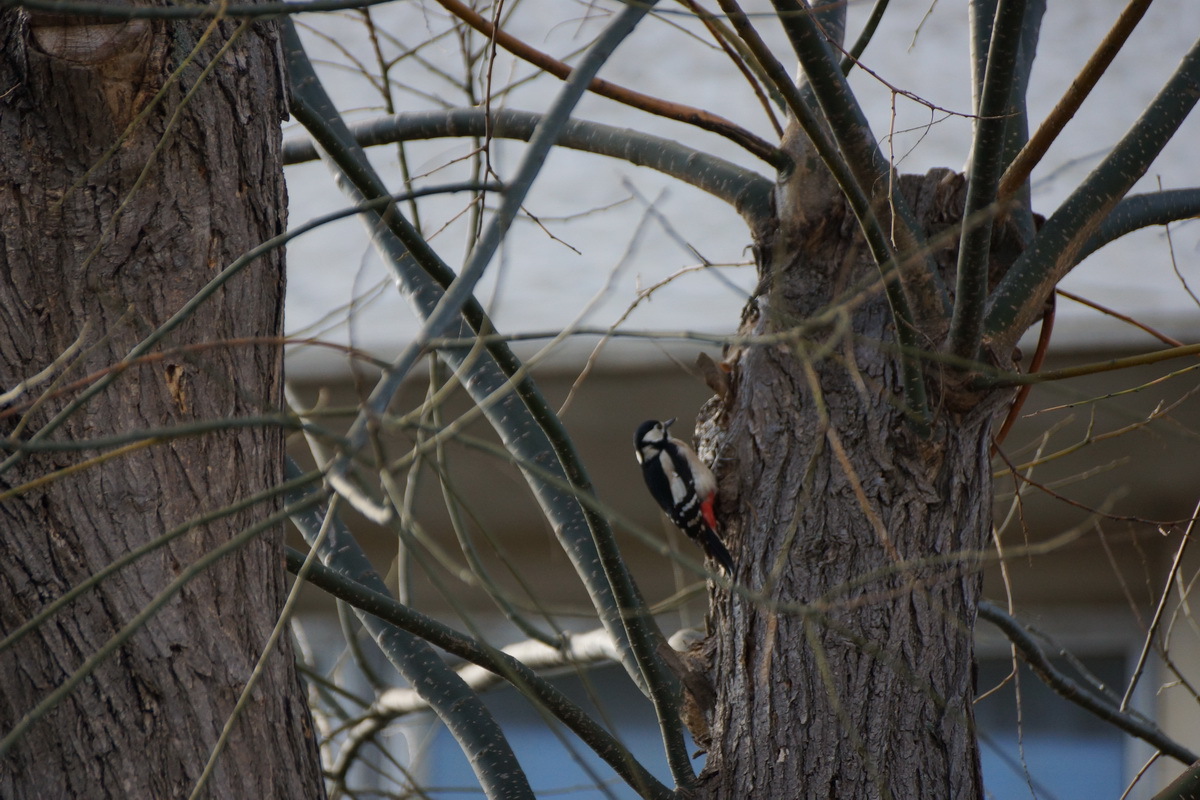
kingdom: Animalia
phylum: Chordata
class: Aves
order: Piciformes
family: Picidae
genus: Dendrocopos
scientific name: Dendrocopos major
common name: Great spotted woodpecker
